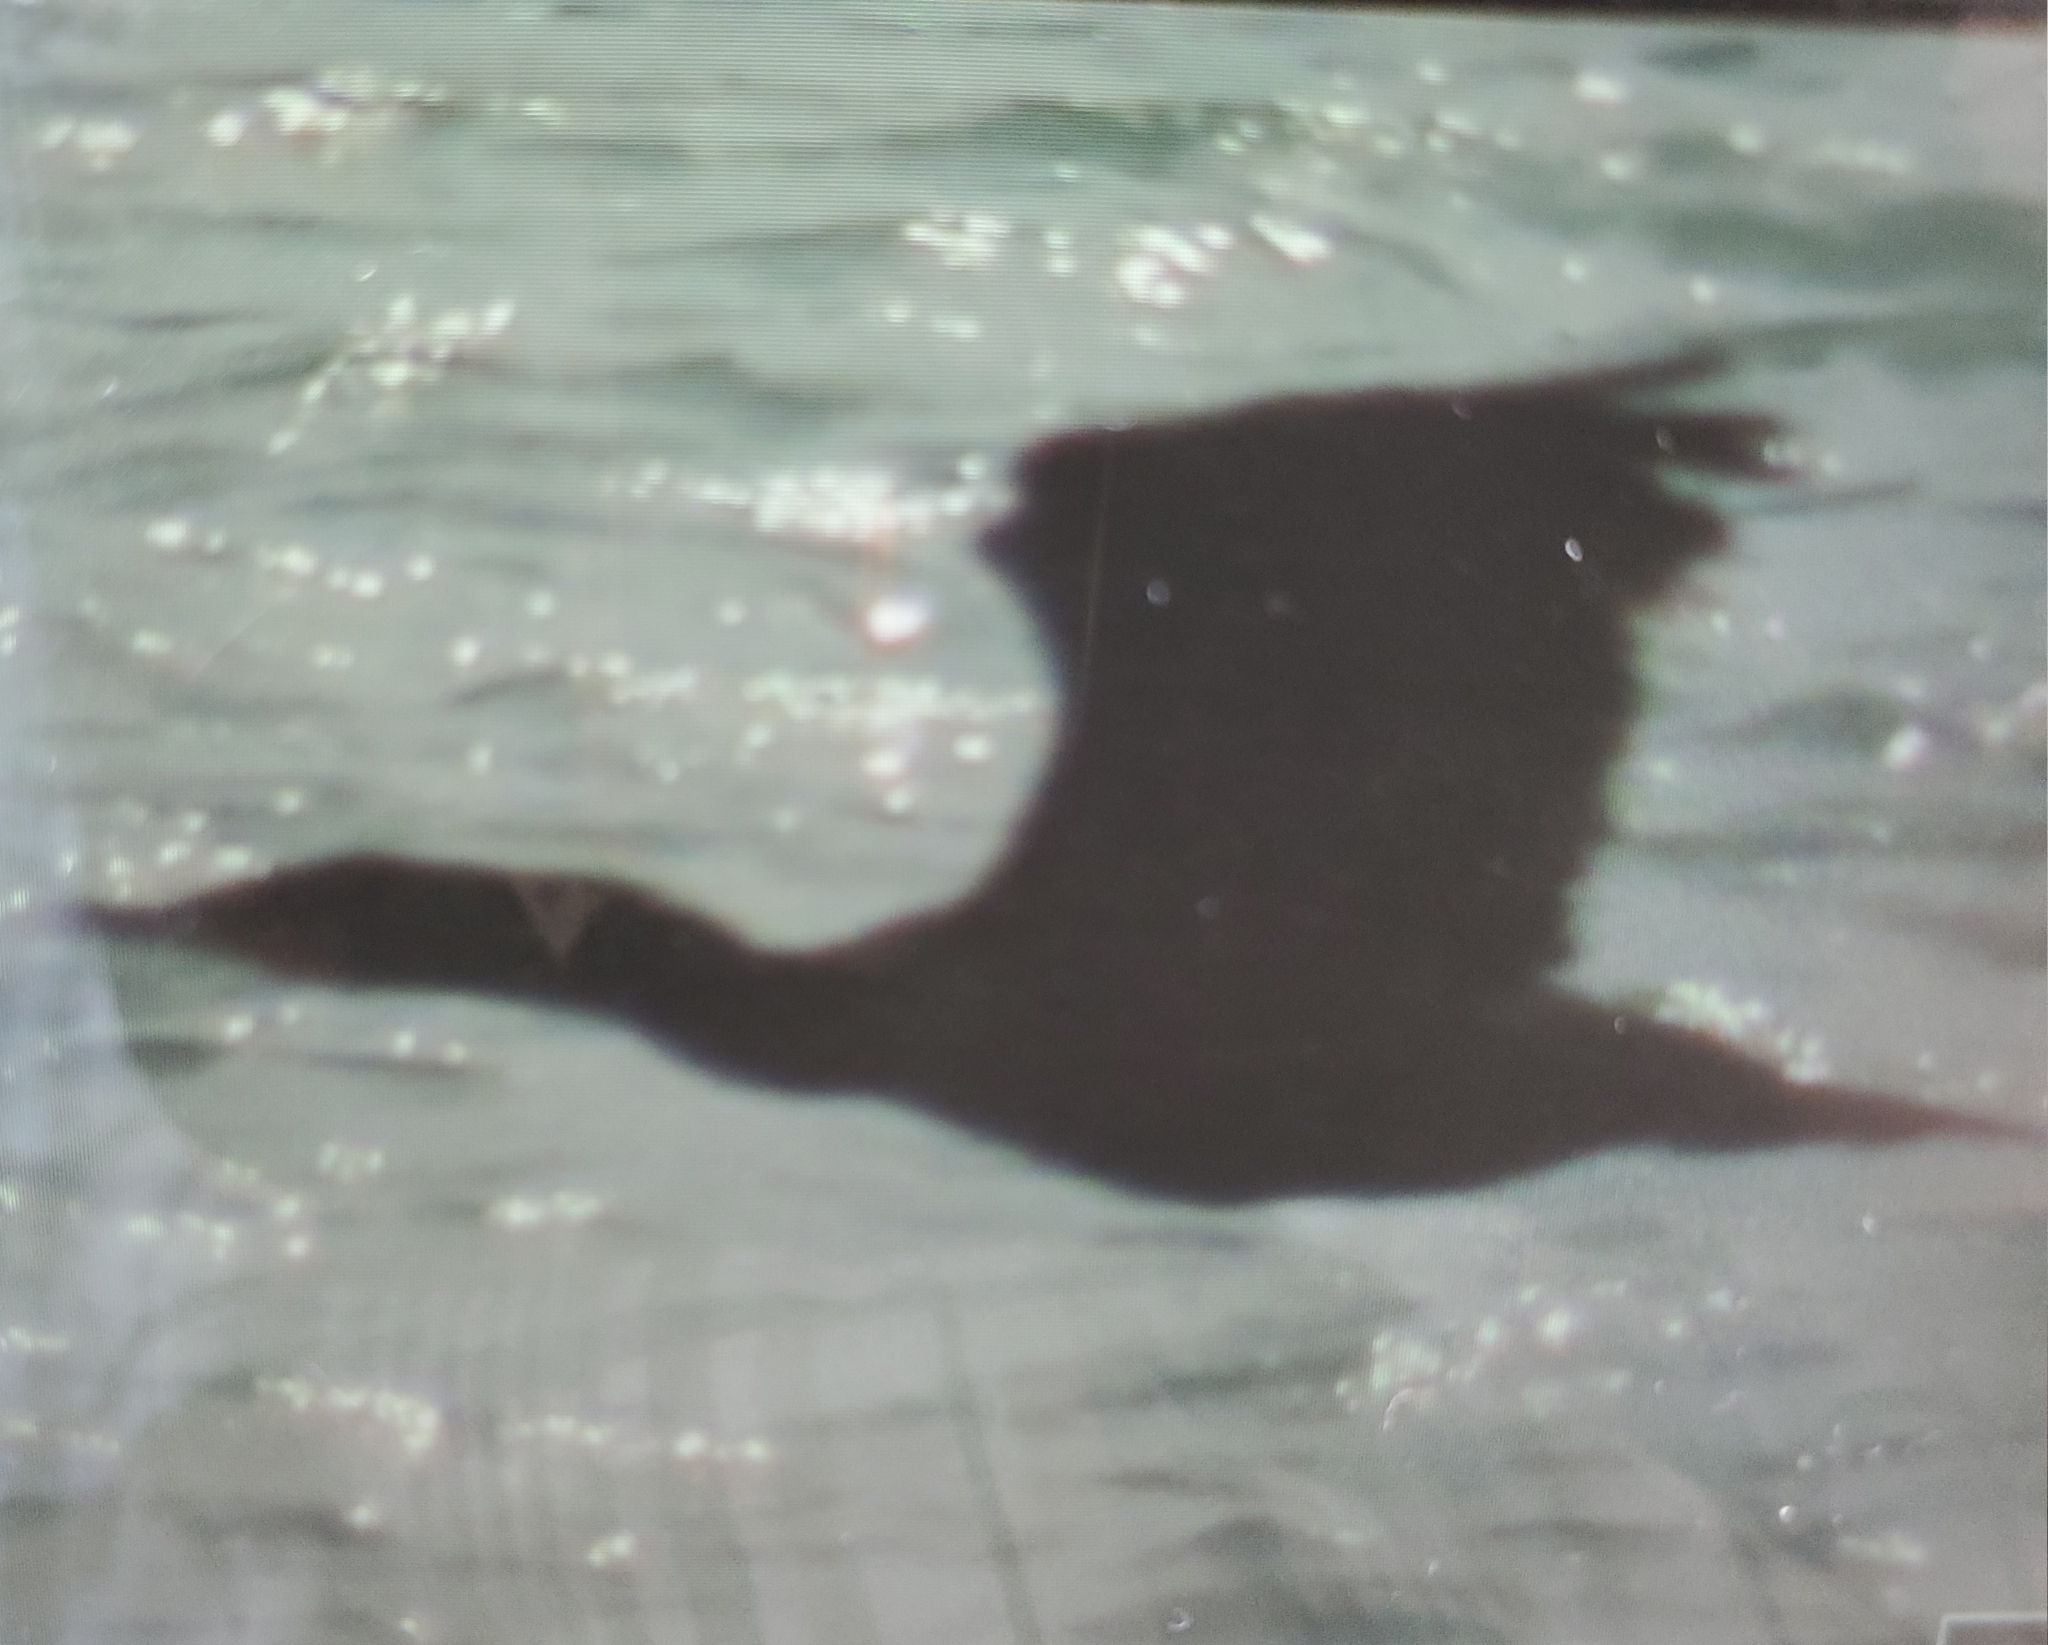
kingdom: Animalia
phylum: Chordata
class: Aves
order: Suliformes
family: Phalacrocoracidae
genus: Phalacrocorax
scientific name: Phalacrocorax auritus
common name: Double-crested cormorant
